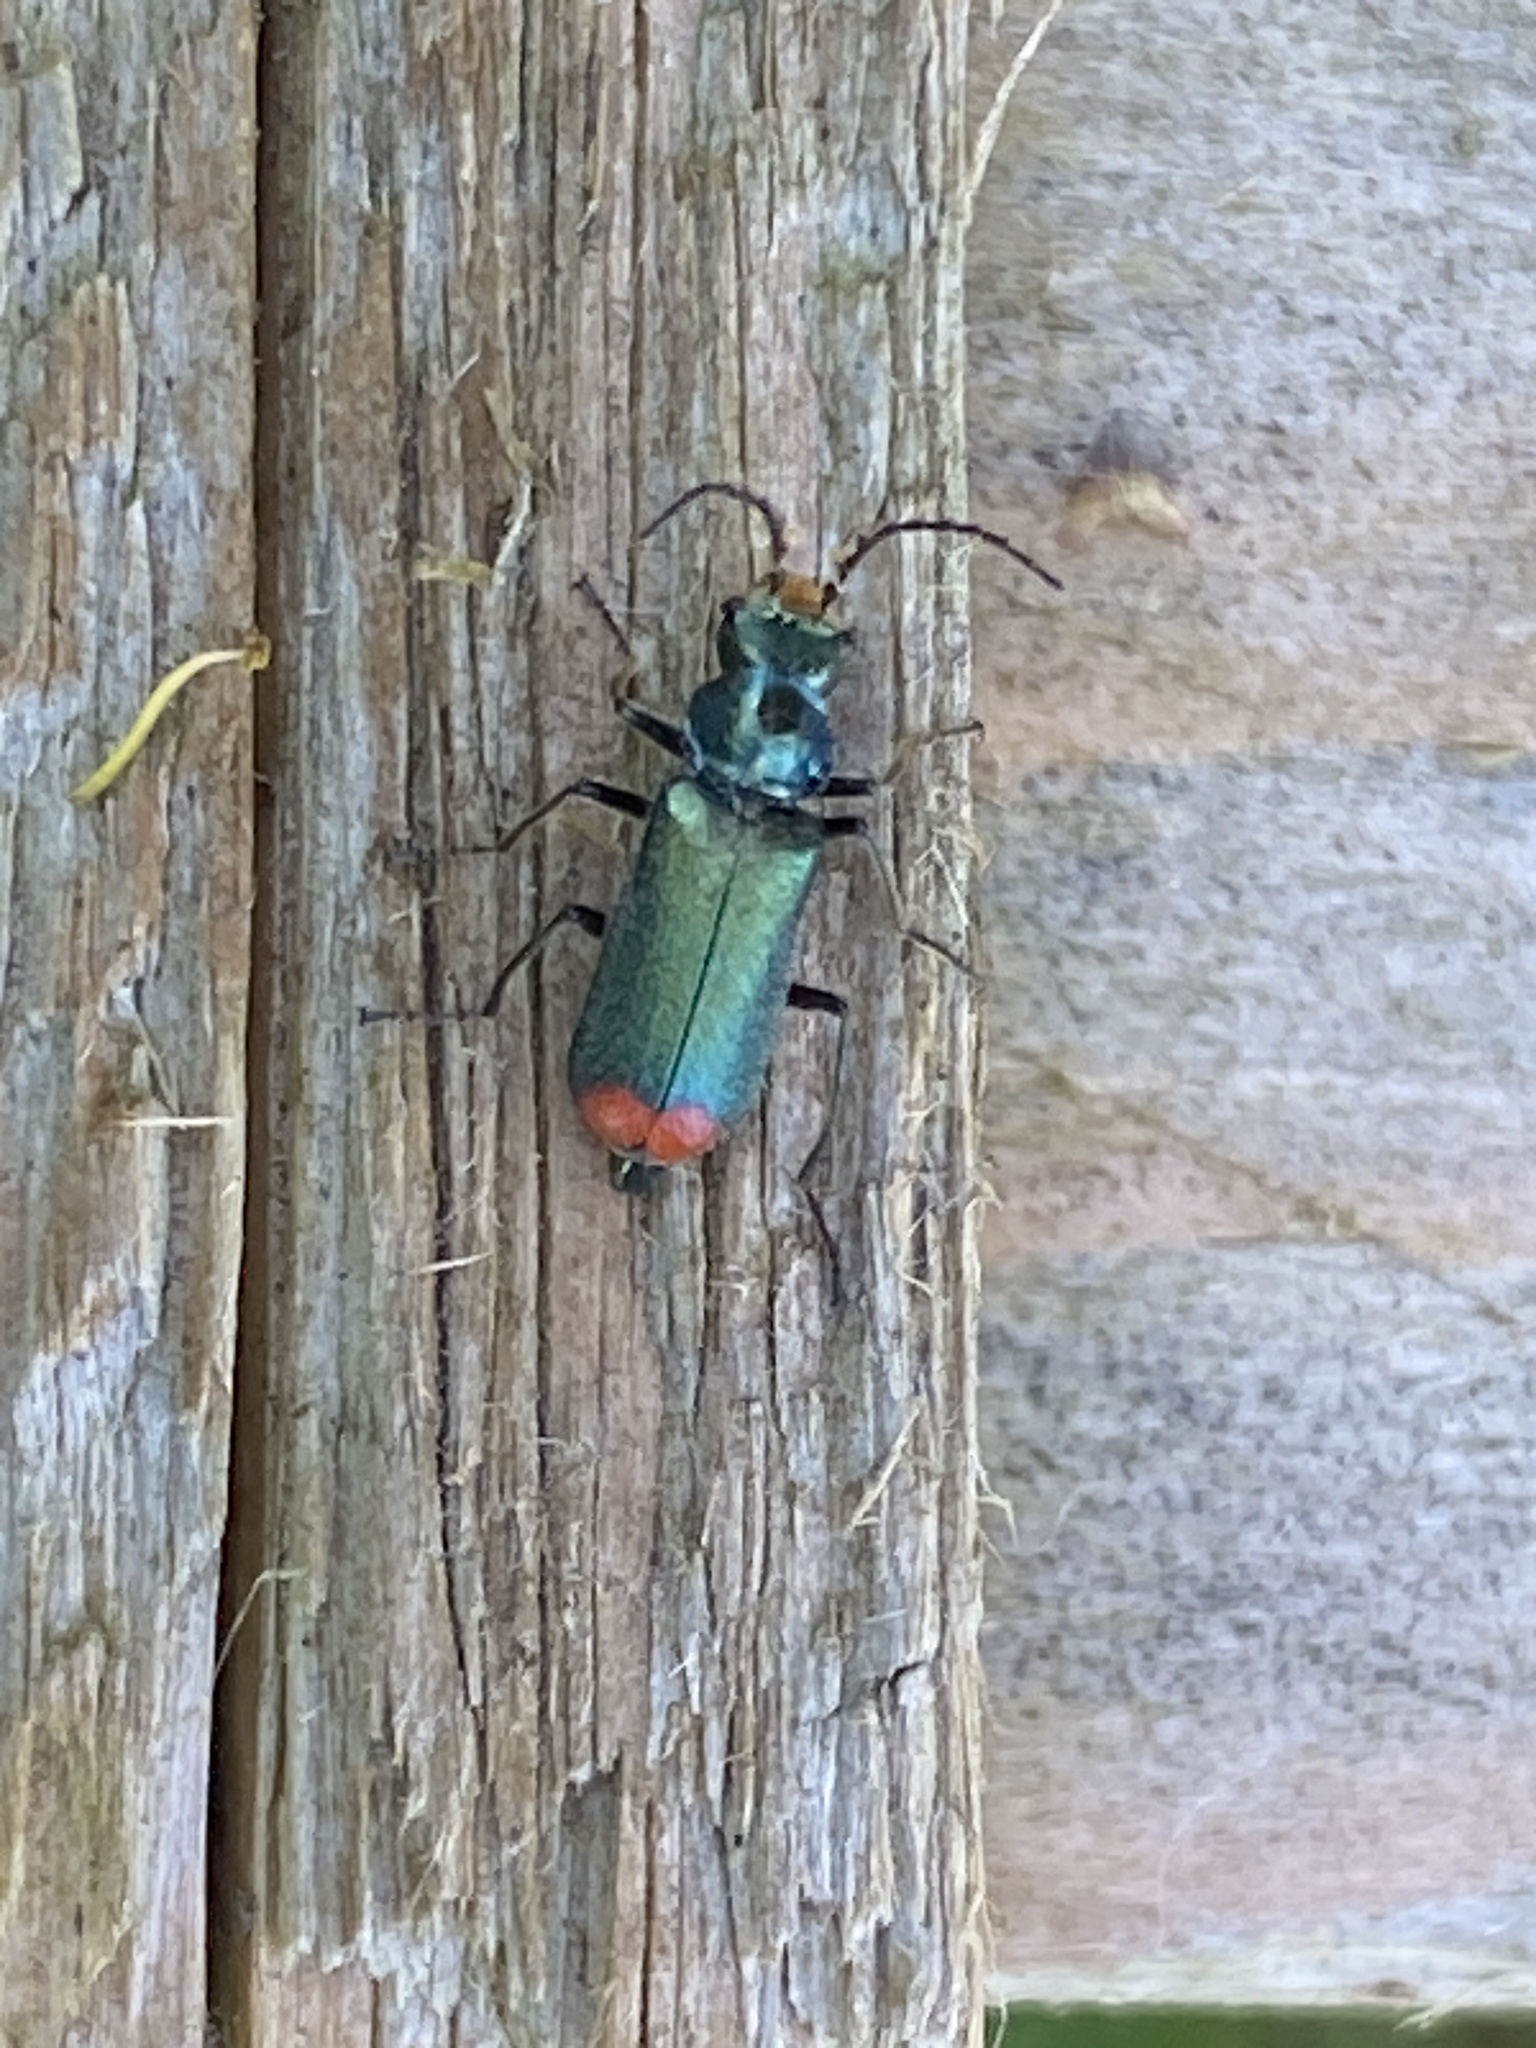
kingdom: Animalia
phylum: Arthropoda
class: Insecta
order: Coleoptera
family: Melyridae
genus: Malachius
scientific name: Malachius bipustulatus
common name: Malachite beetle
